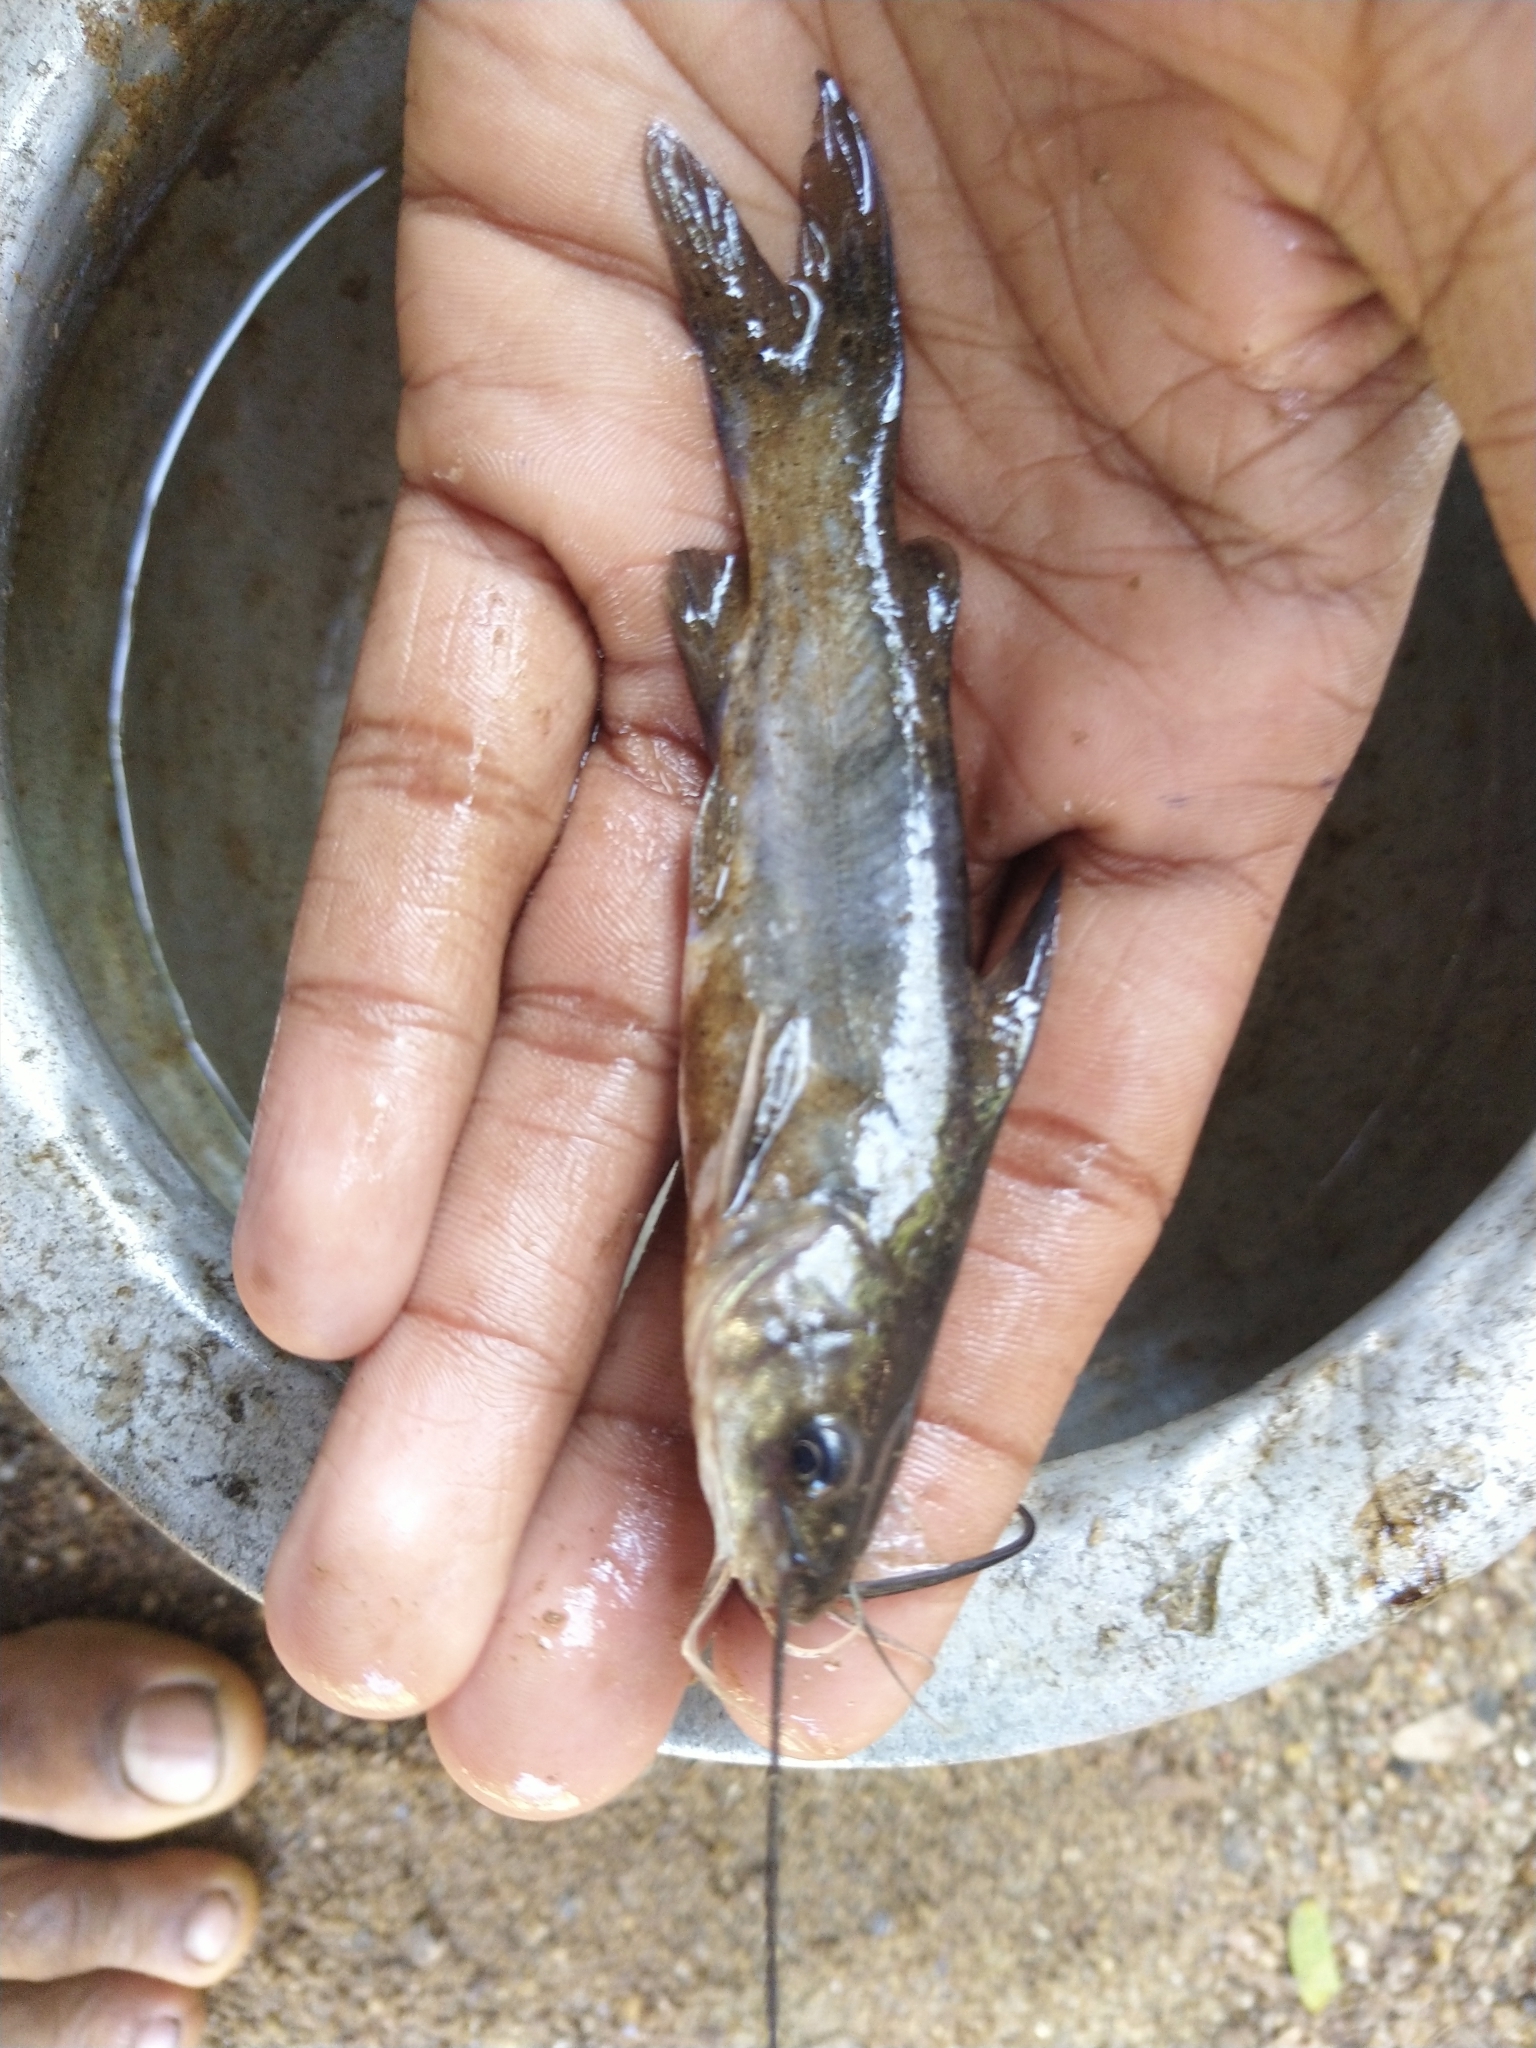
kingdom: Animalia
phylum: Chordata
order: Siluriformes
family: Bagridae
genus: Mystus
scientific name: Mystus gulio
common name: Long whiskers catfish
